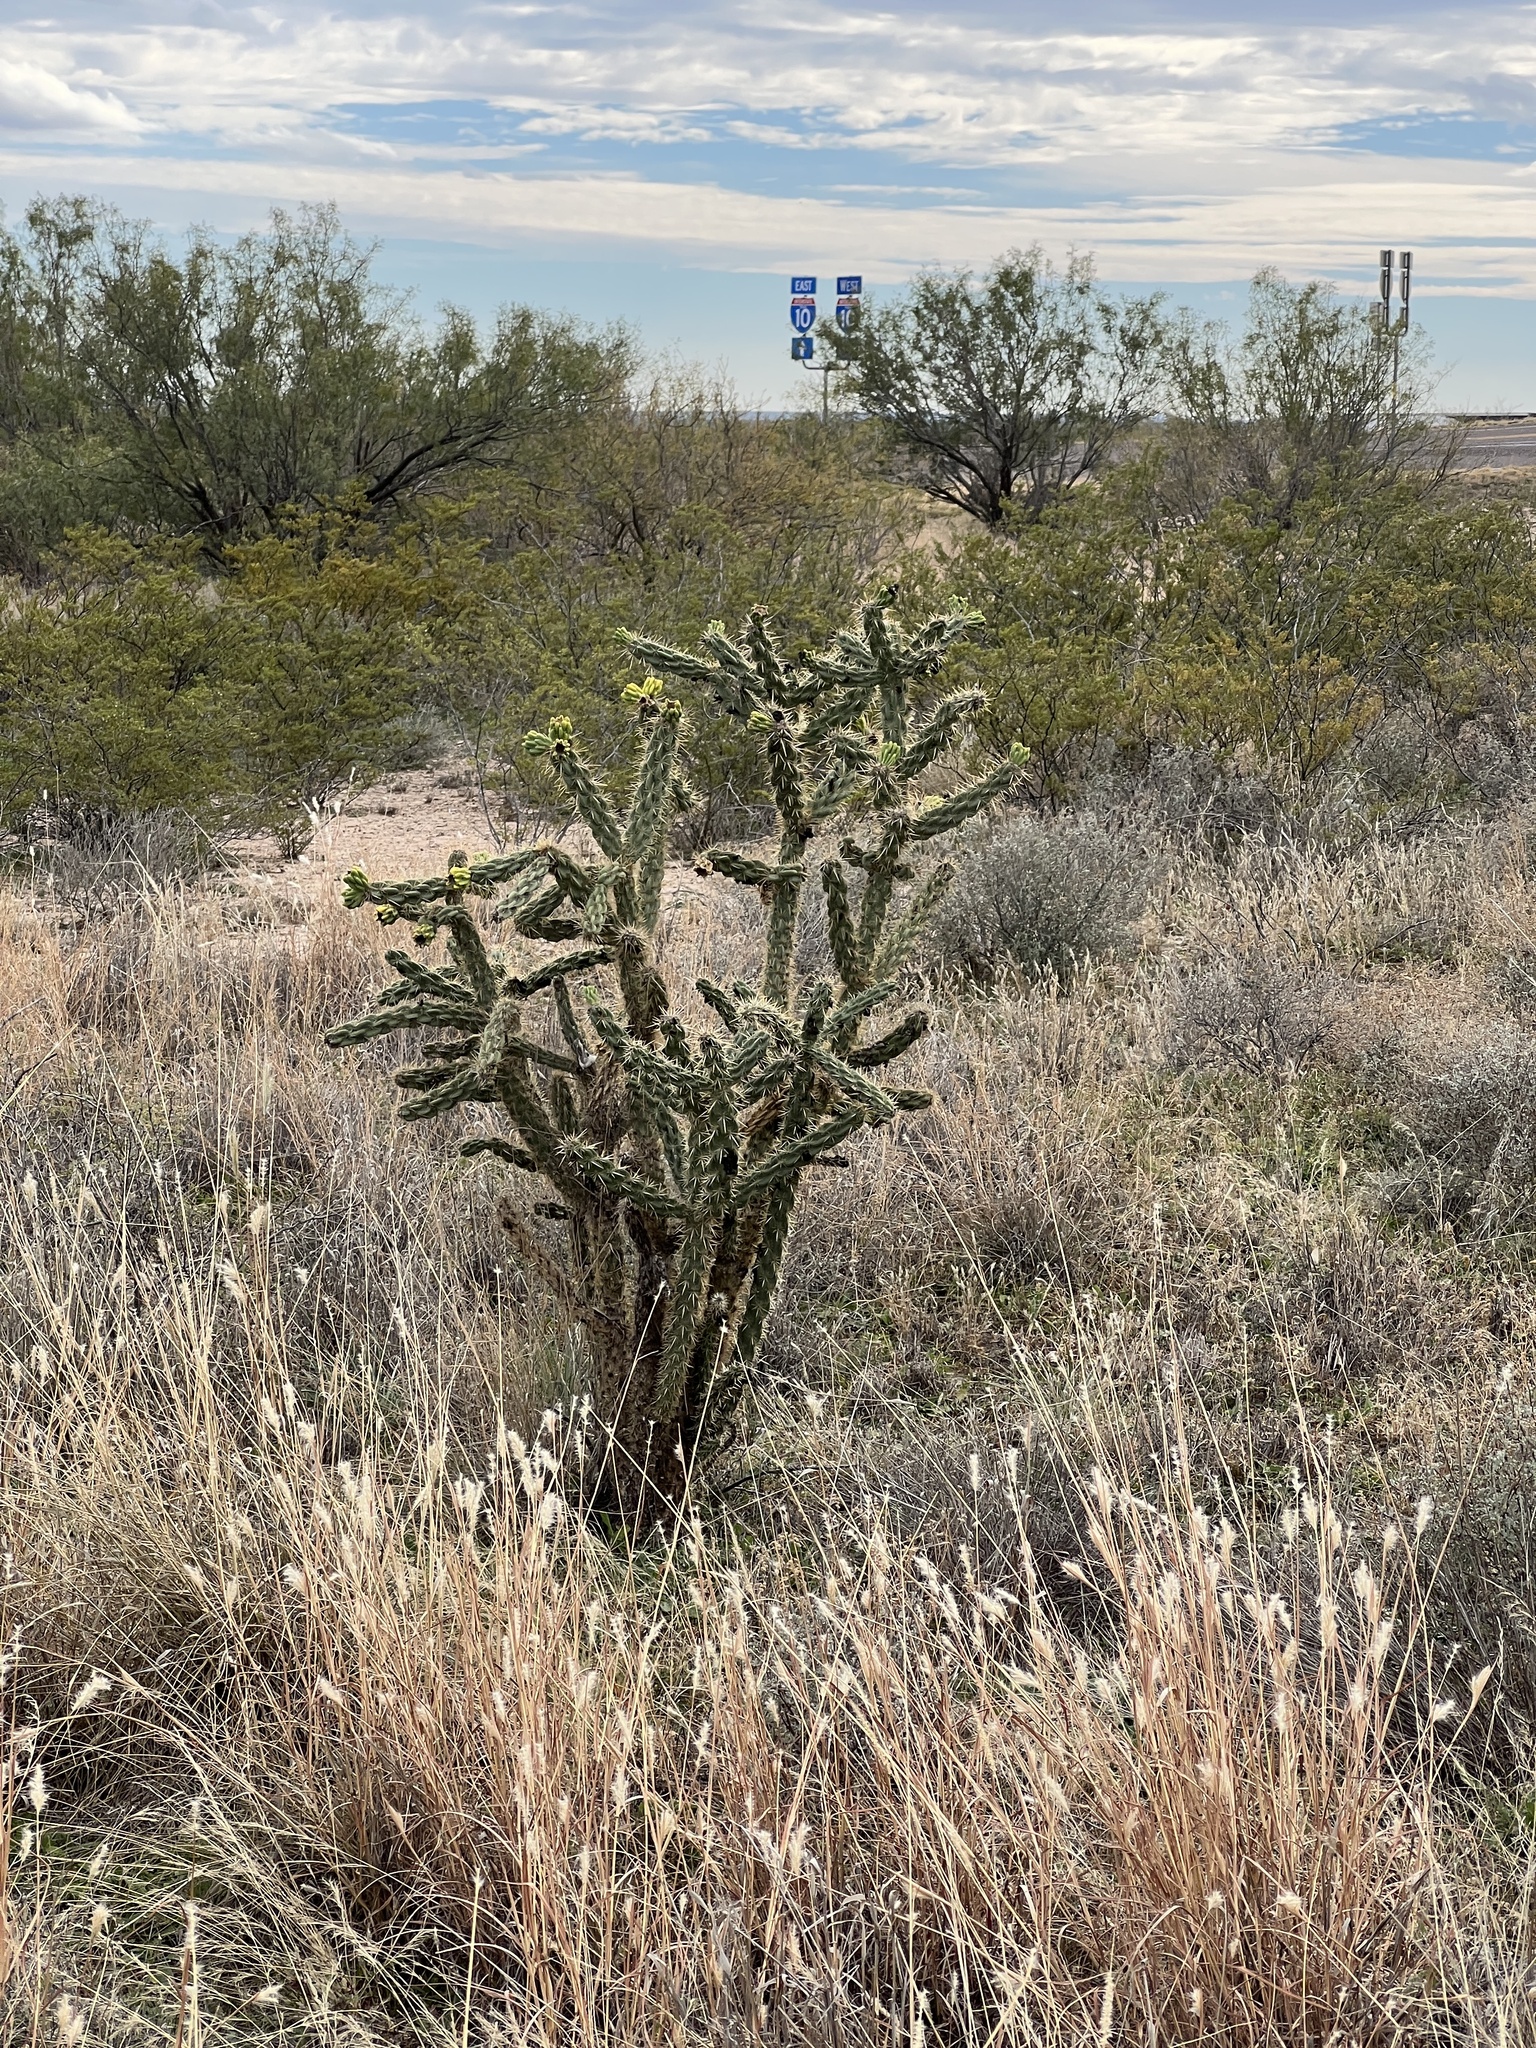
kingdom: Plantae
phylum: Tracheophyta
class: Magnoliopsida
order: Caryophyllales
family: Cactaceae
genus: Cylindropuntia
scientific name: Cylindropuntia imbricata
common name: Candelabrum cactus
